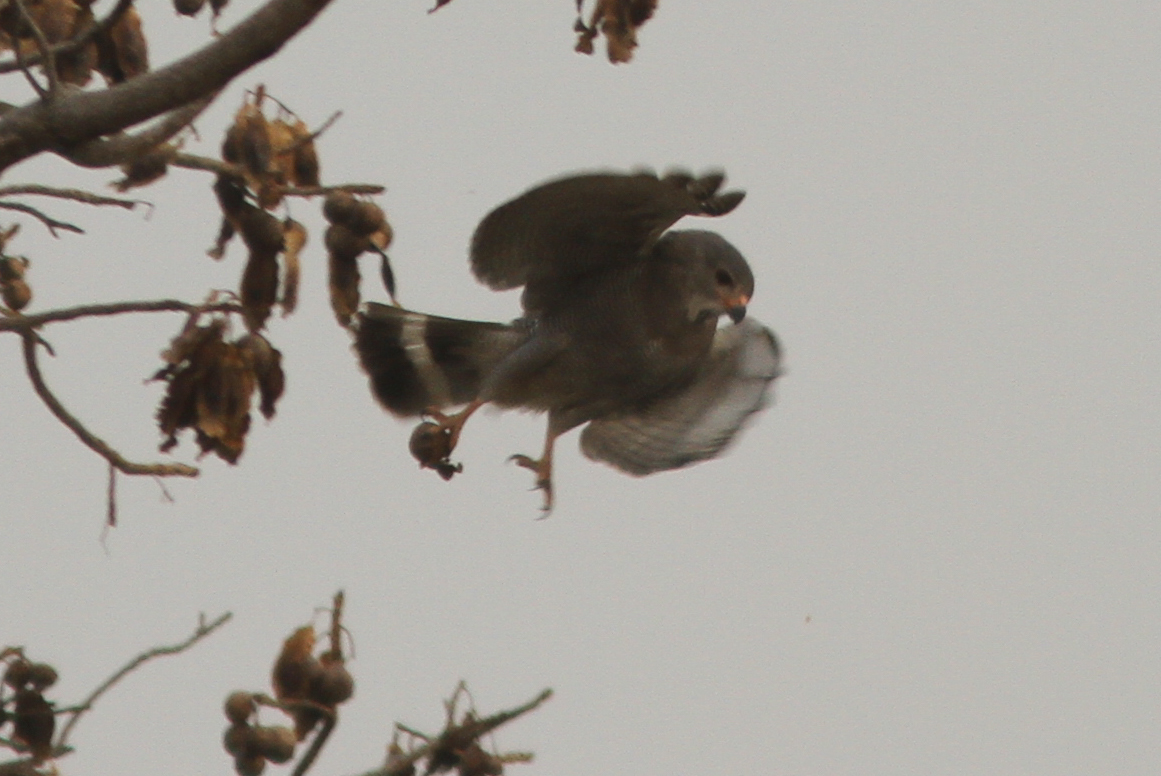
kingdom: Animalia
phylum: Chordata
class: Aves
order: Accipitriformes
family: Accipitridae
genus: Kaupifalco
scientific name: Kaupifalco monogrammicus
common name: Lizard buzzard
